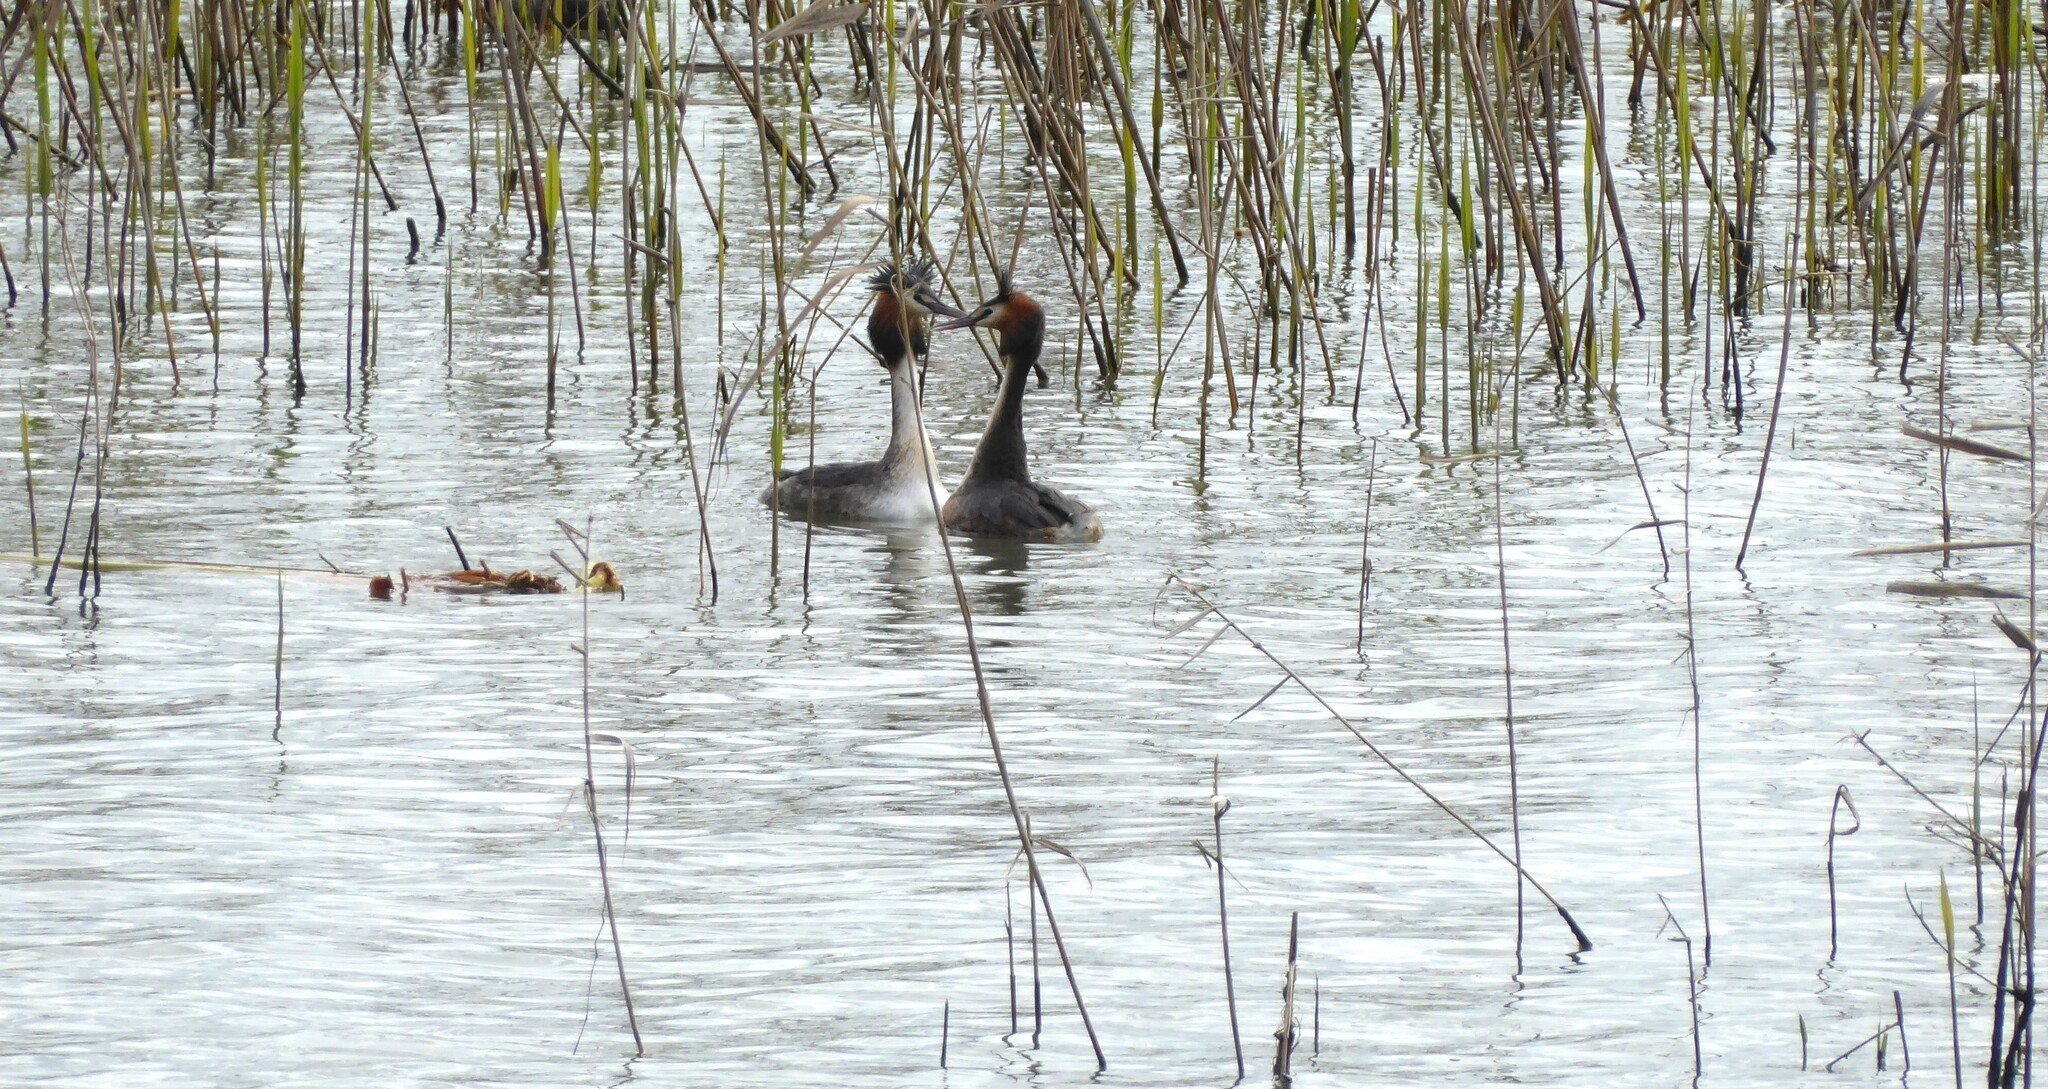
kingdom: Animalia
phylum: Chordata
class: Aves
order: Podicipediformes
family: Podicipedidae
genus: Podiceps
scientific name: Podiceps cristatus
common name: Great crested grebe
